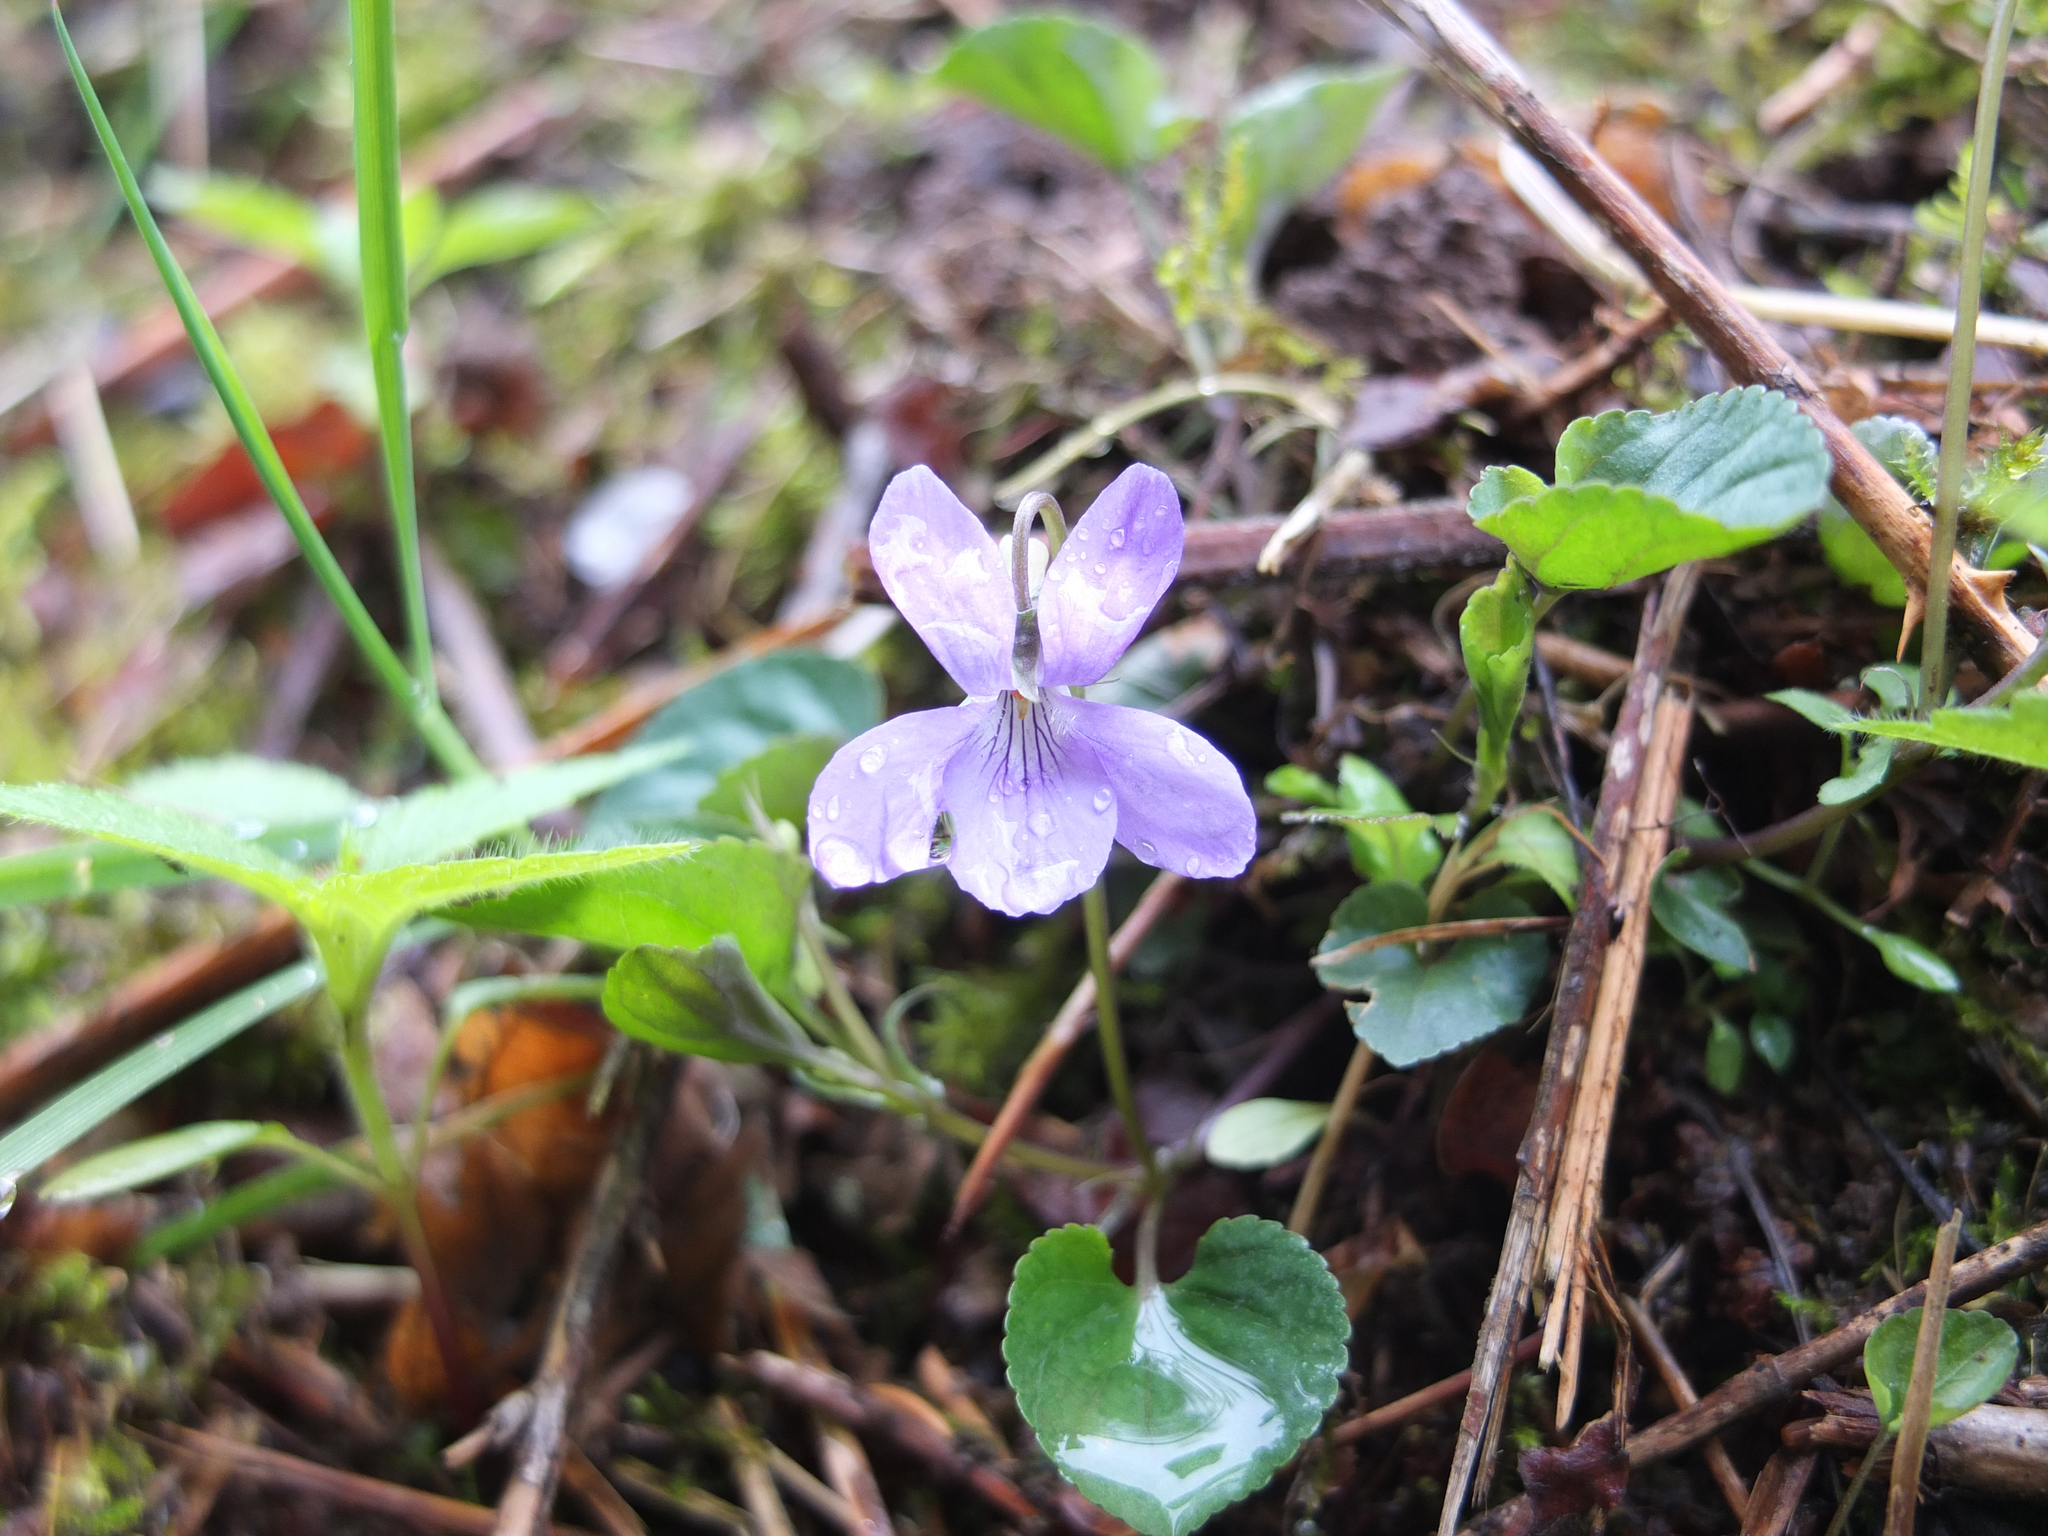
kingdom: Plantae
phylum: Tracheophyta
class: Magnoliopsida
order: Malpighiales
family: Violaceae
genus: Viola
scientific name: Viola riviniana
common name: Common dog-violet
